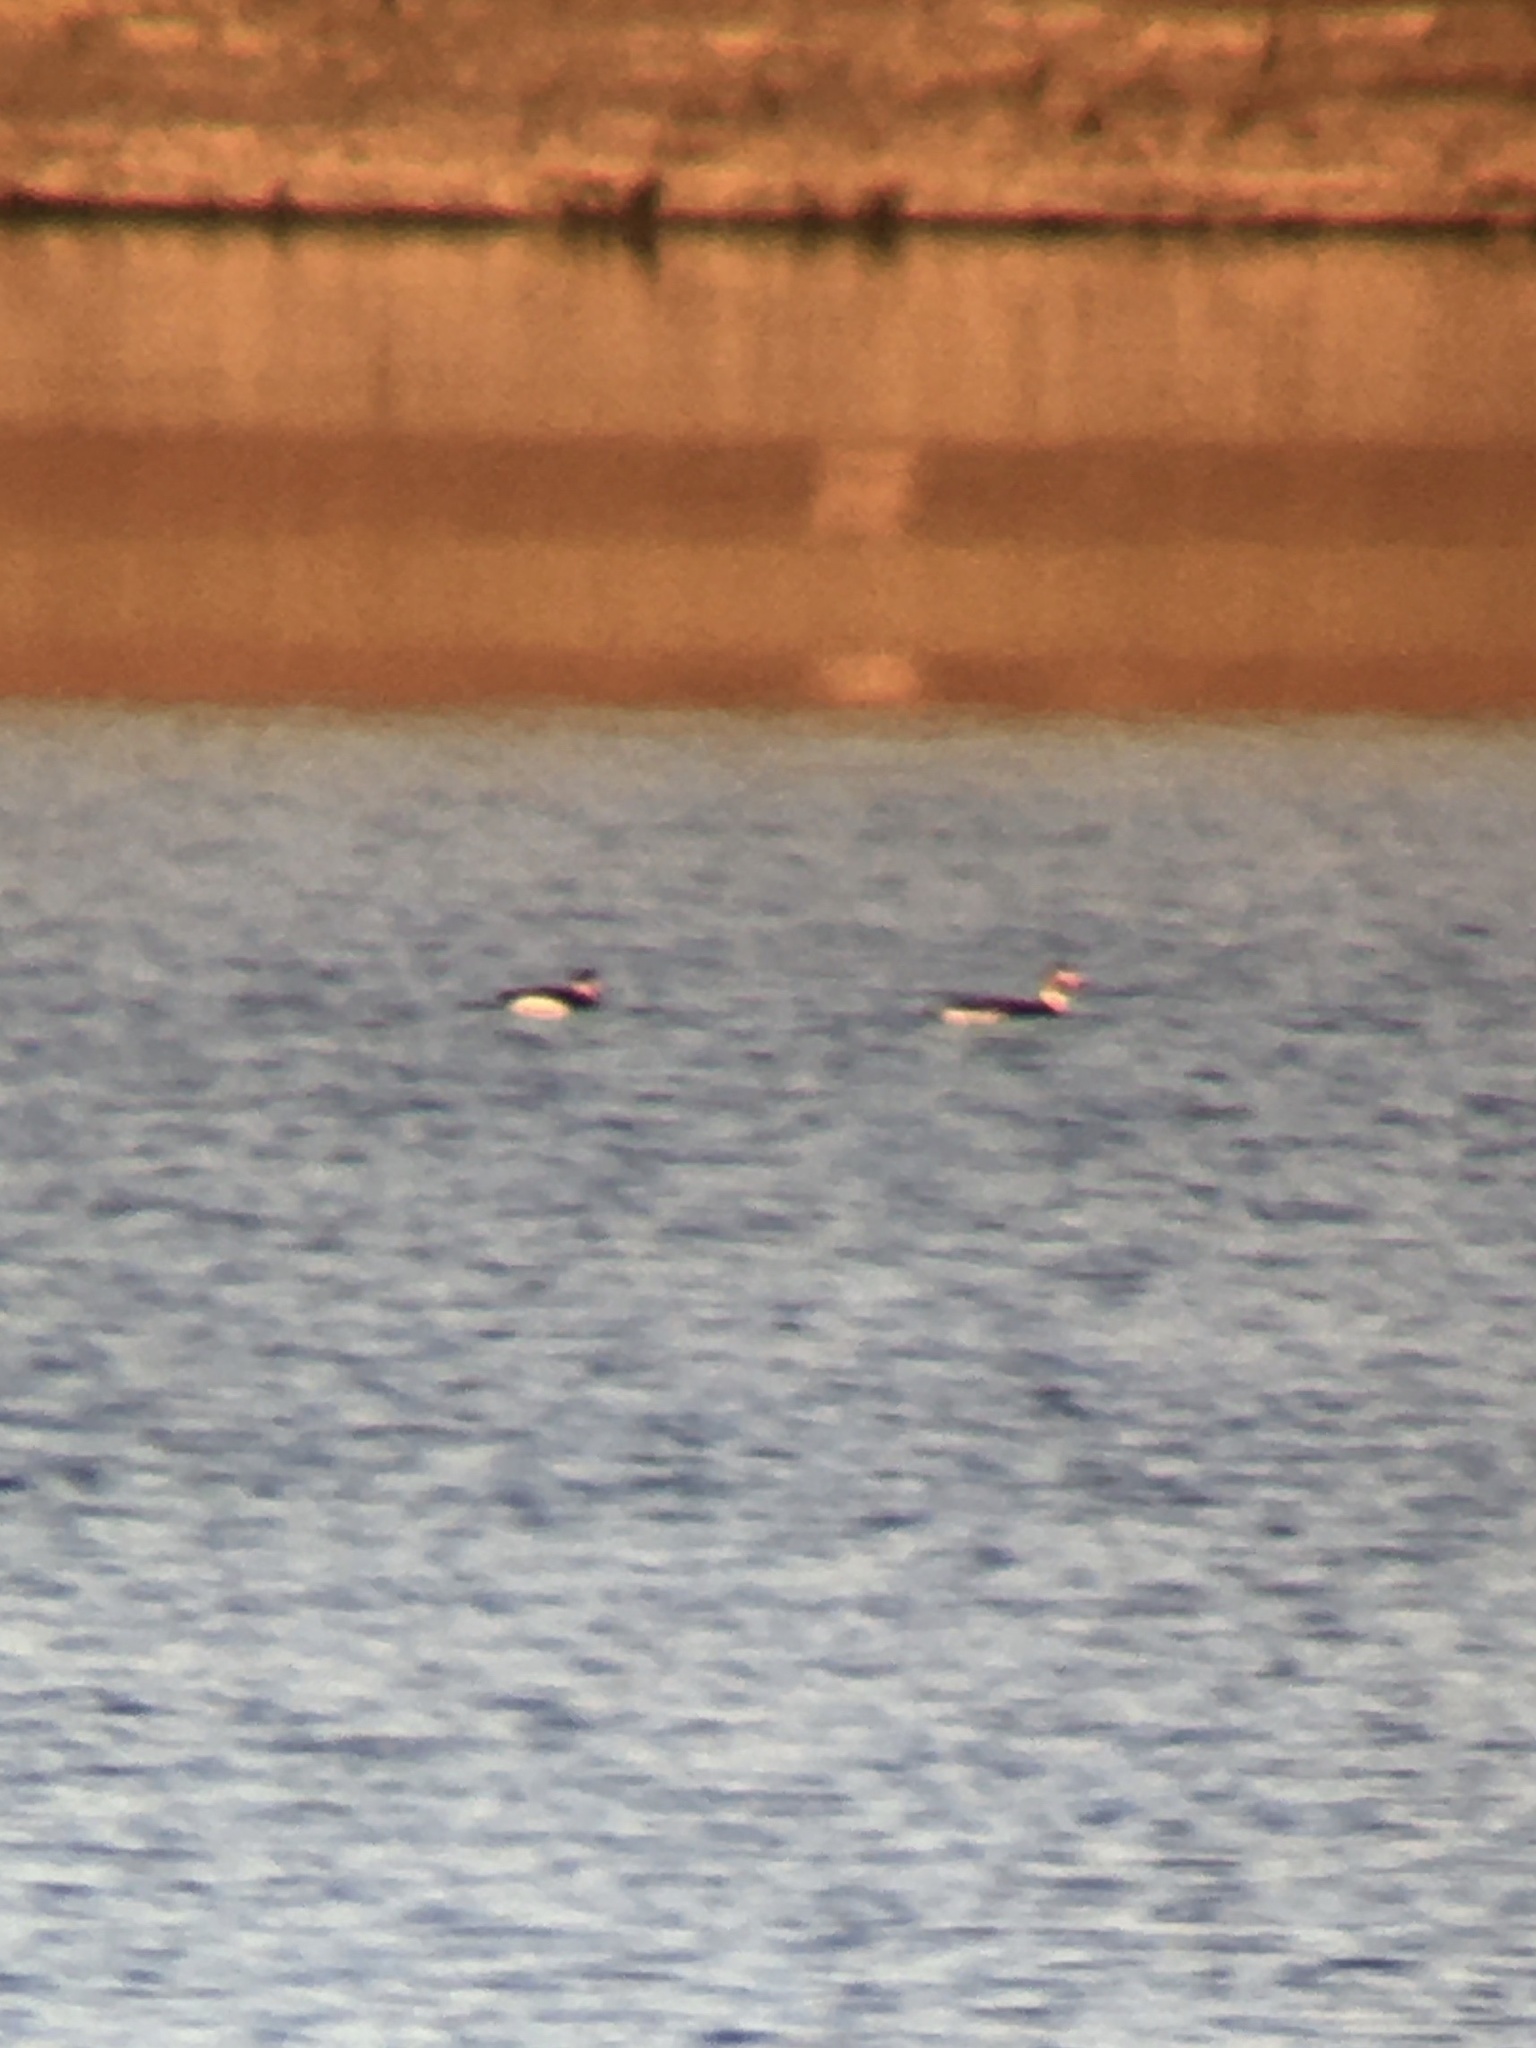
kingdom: Animalia
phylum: Chordata
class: Aves
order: Anseriformes
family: Anatidae
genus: Clangula
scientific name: Clangula hyemalis
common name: Long-tailed duck
